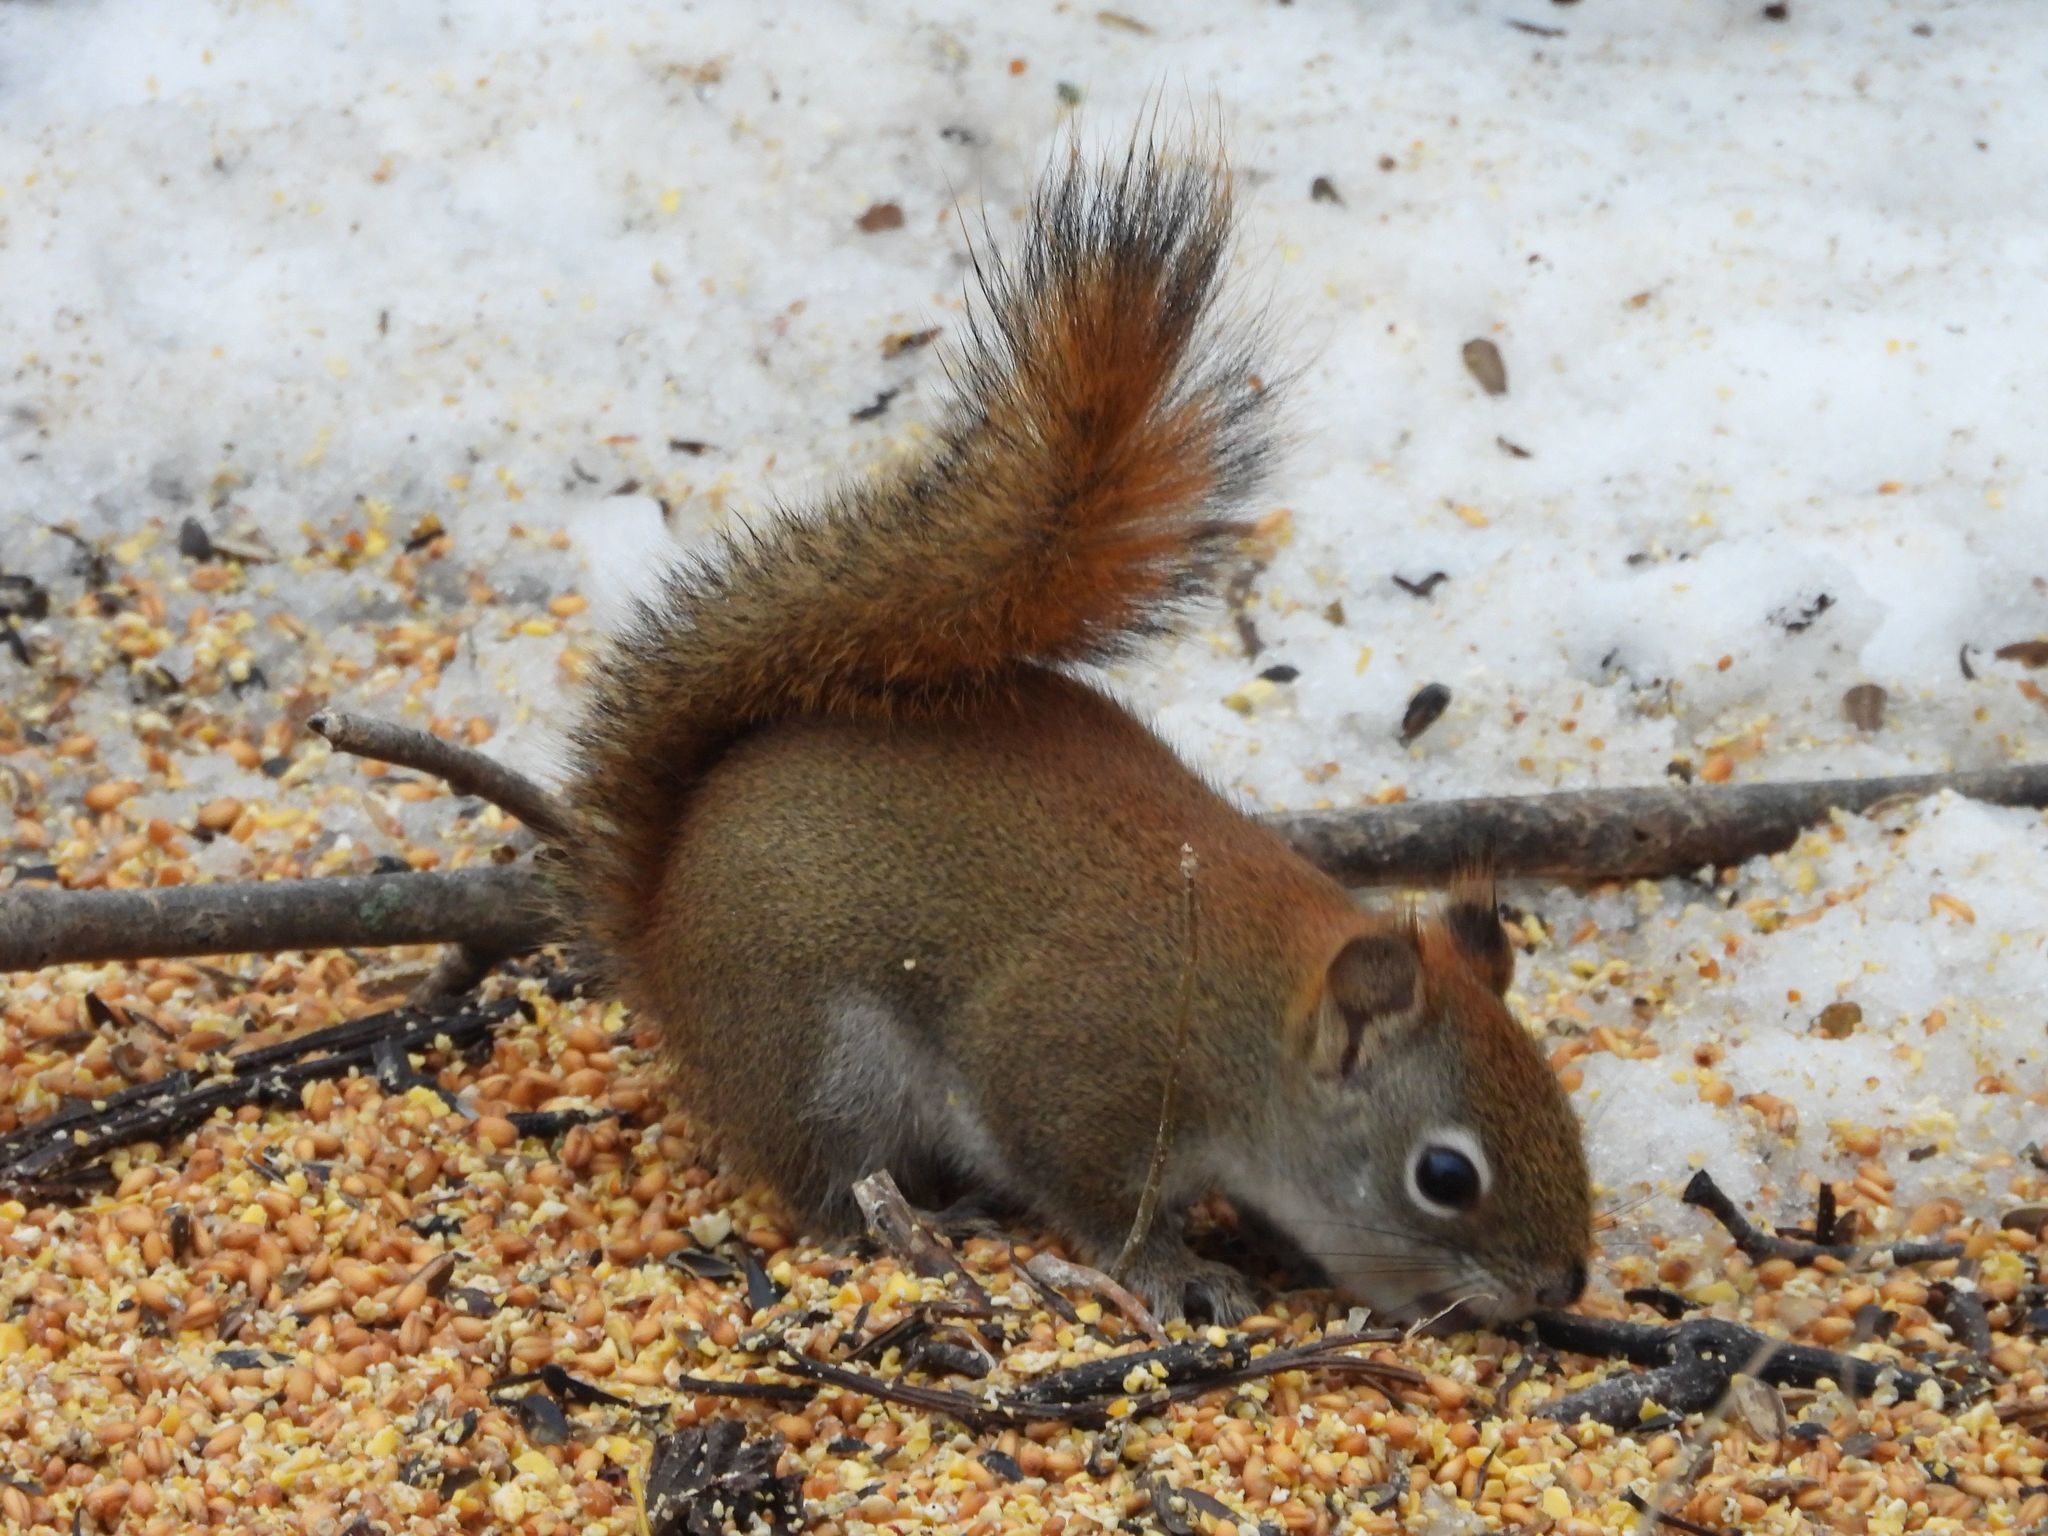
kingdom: Animalia
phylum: Chordata
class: Mammalia
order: Rodentia
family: Sciuridae
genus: Tamiasciurus
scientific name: Tamiasciurus hudsonicus
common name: Red squirrel
